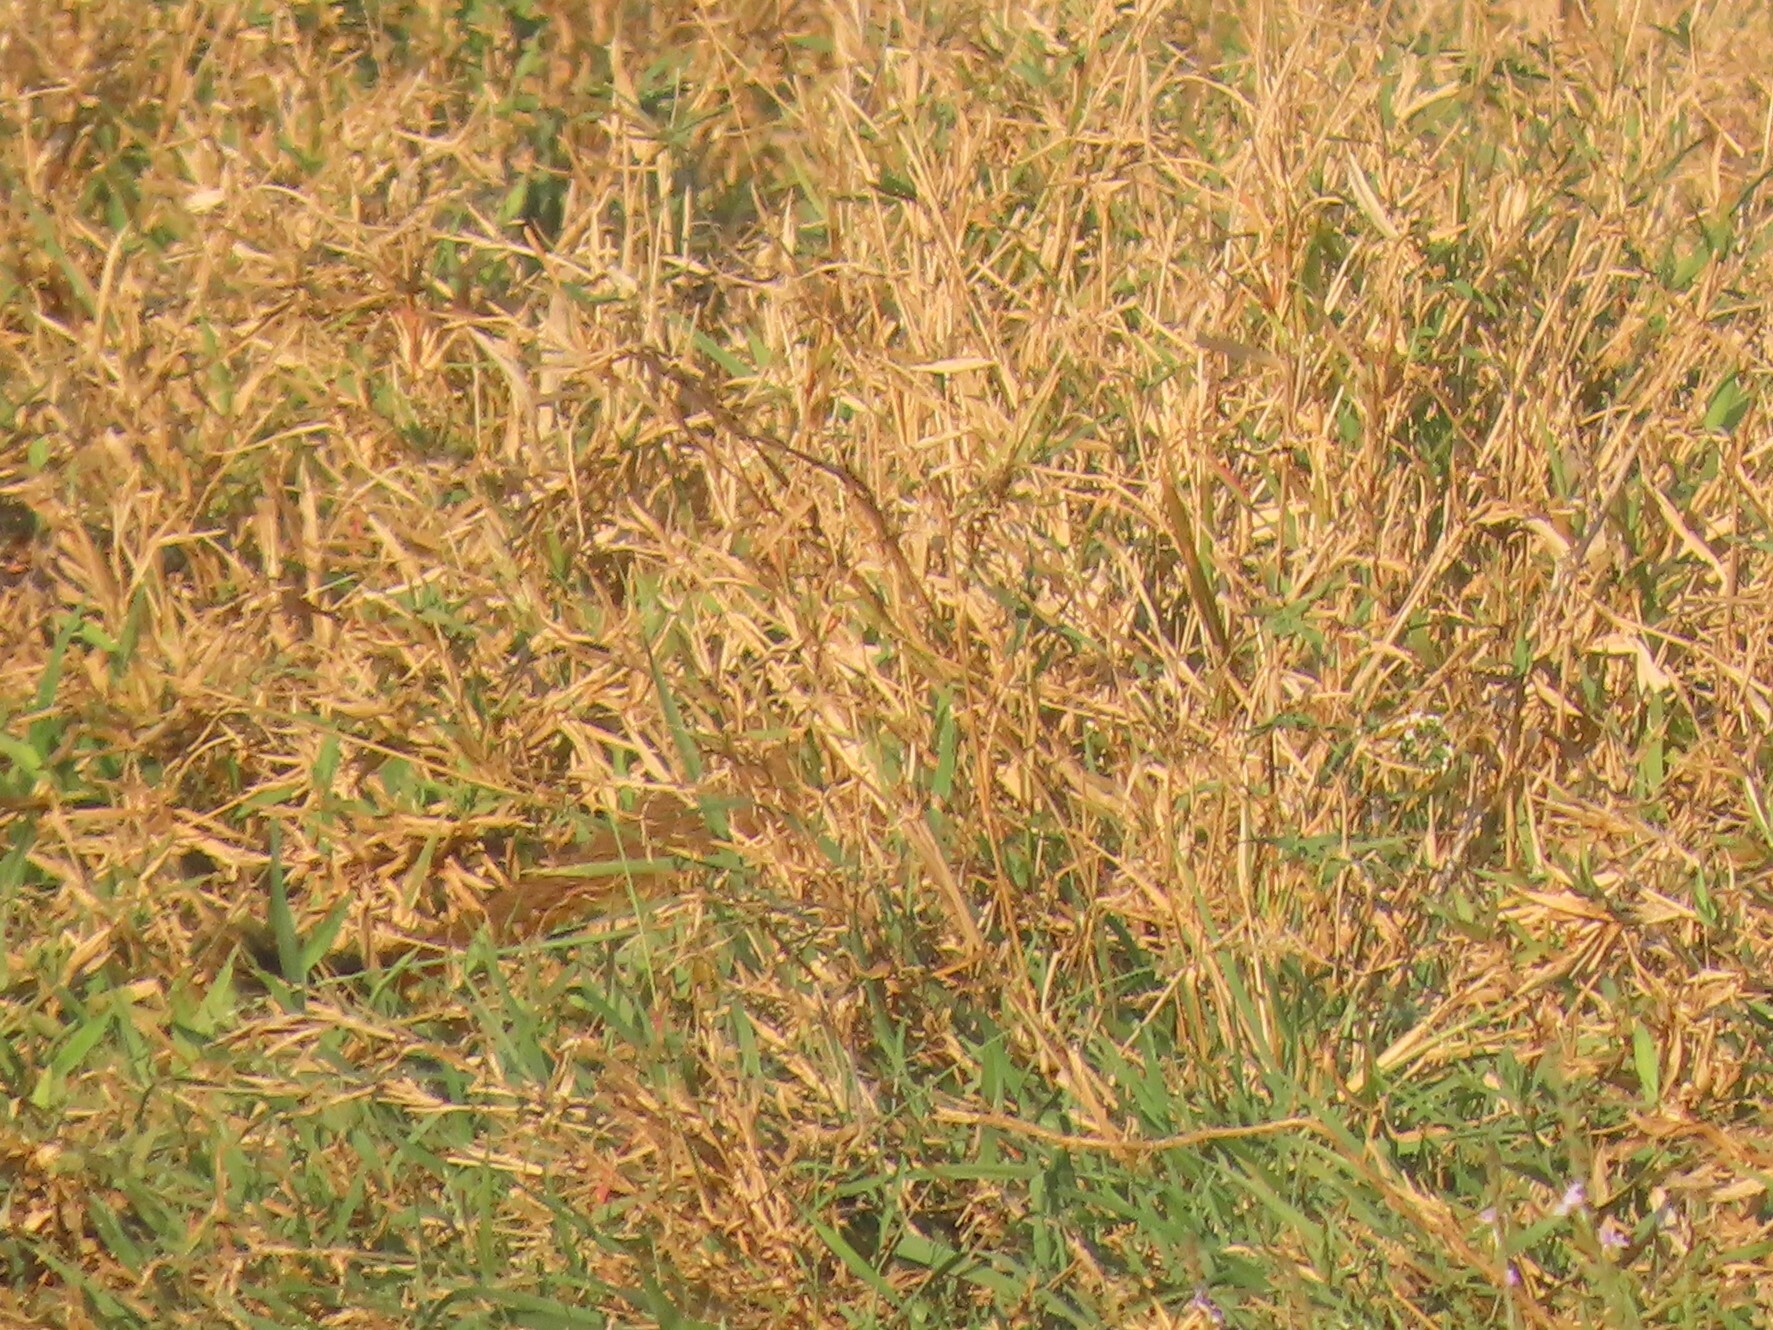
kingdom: Animalia
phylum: Chordata
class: Mammalia
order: Carnivora
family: Herpestidae
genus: Galerella
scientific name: Galerella sanguinea
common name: Slender mongoose
